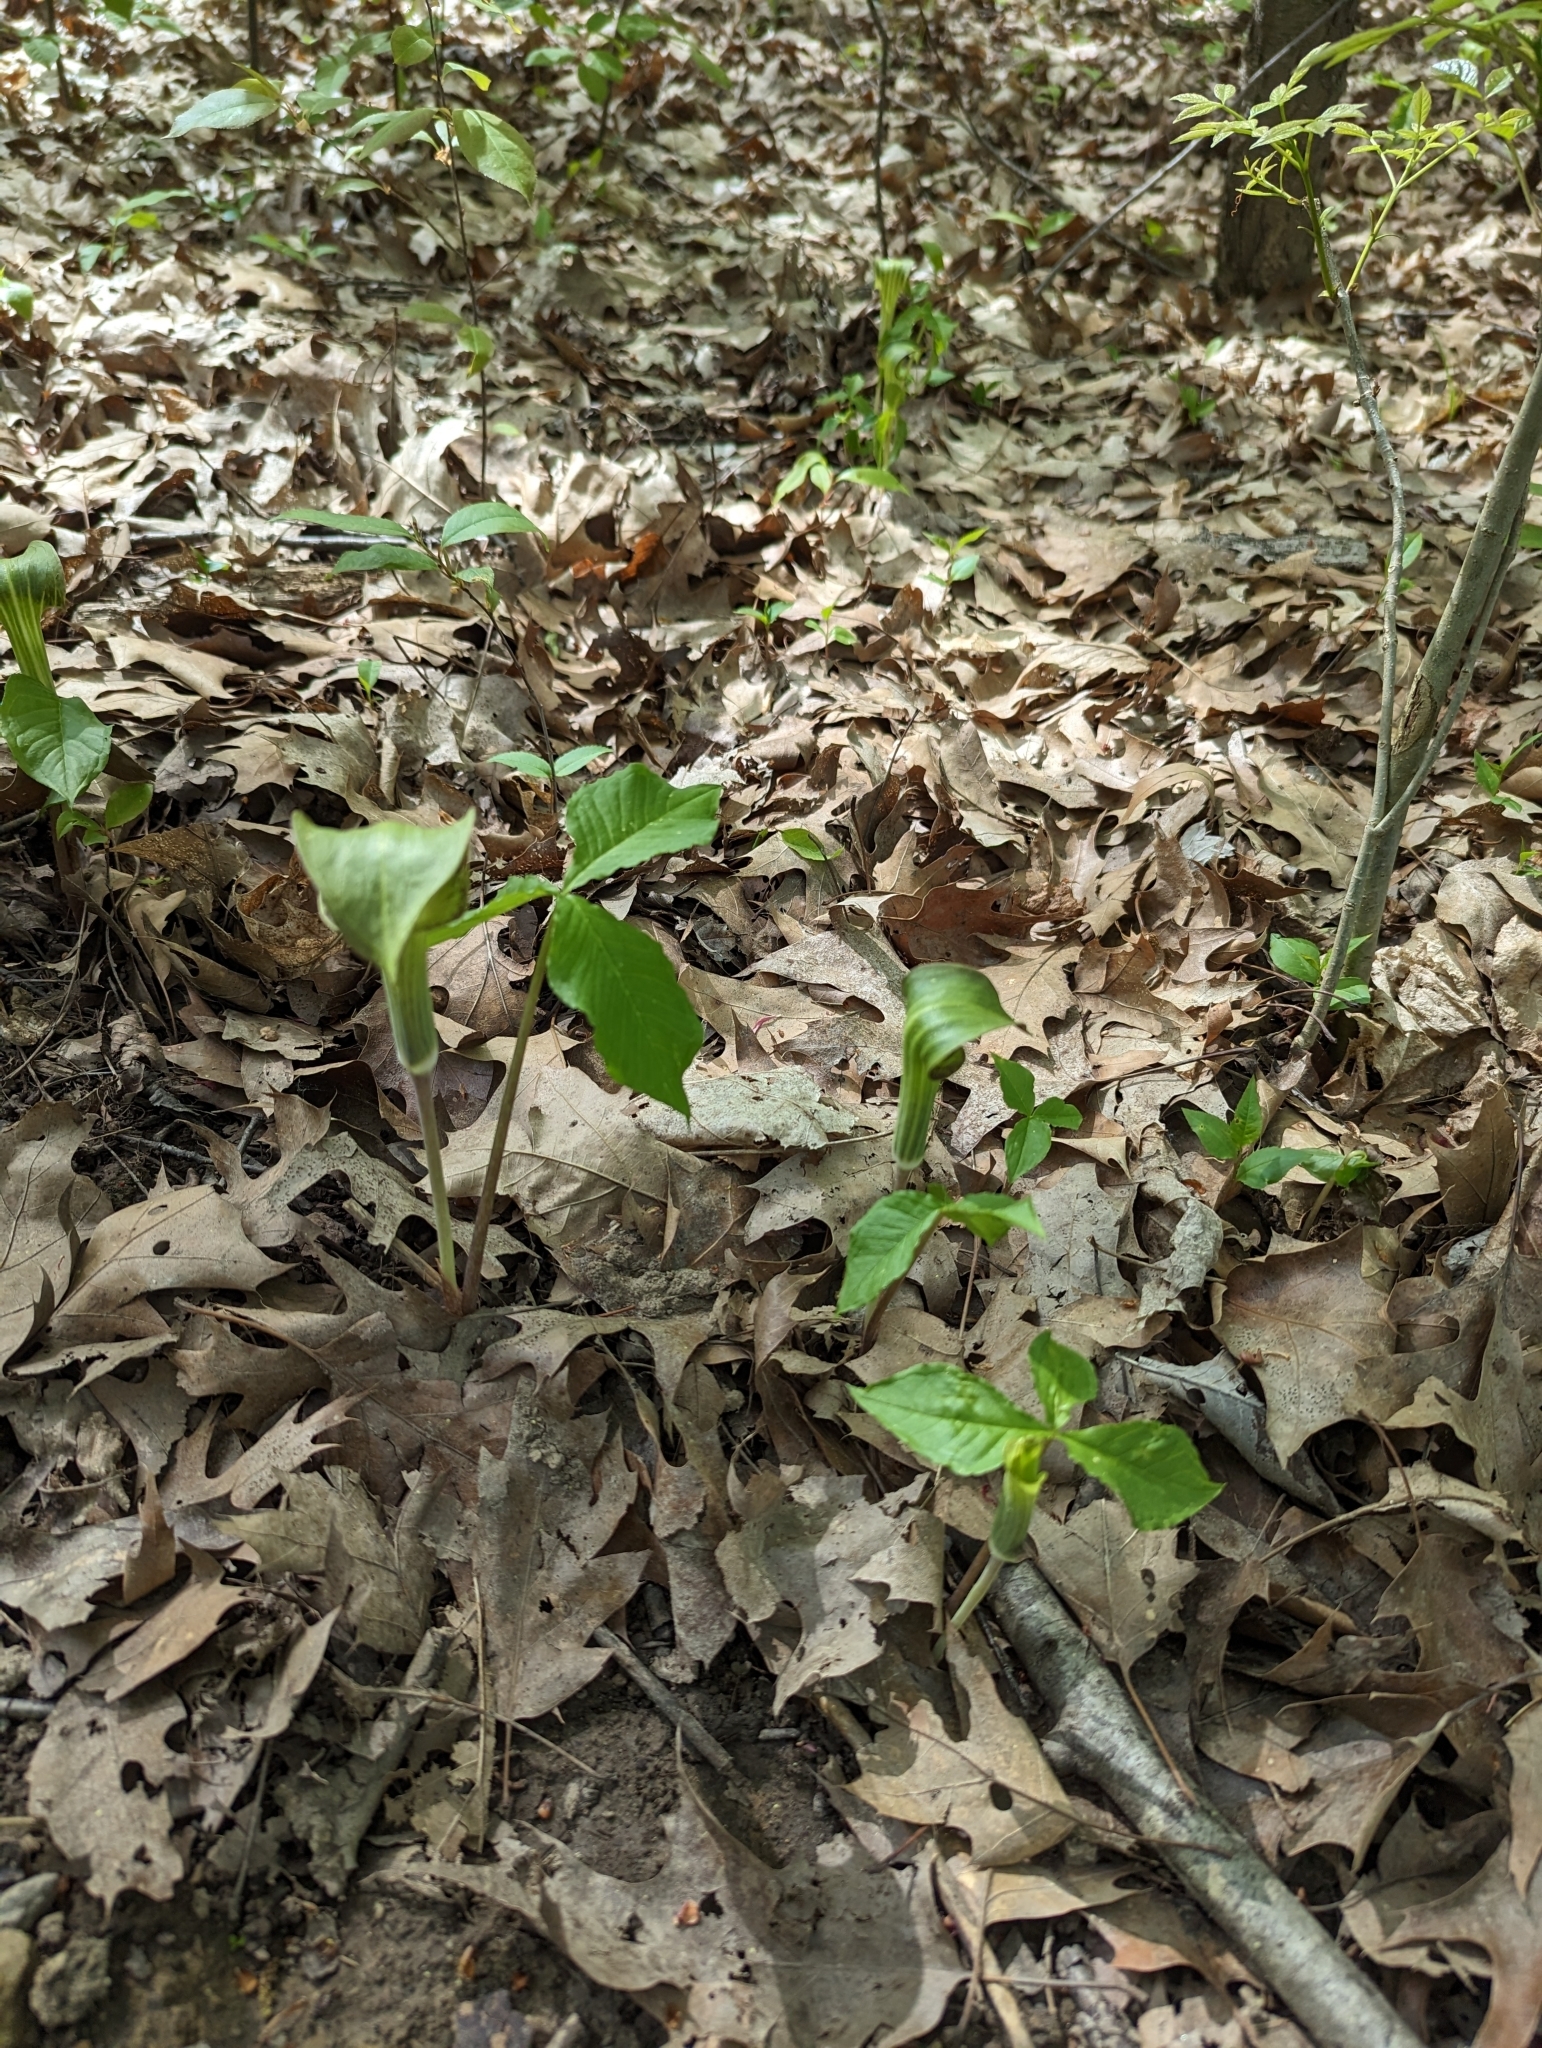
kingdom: Plantae
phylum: Tracheophyta
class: Liliopsida
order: Alismatales
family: Araceae
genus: Arisaema
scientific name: Arisaema triphyllum
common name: Jack-in-the-pulpit
